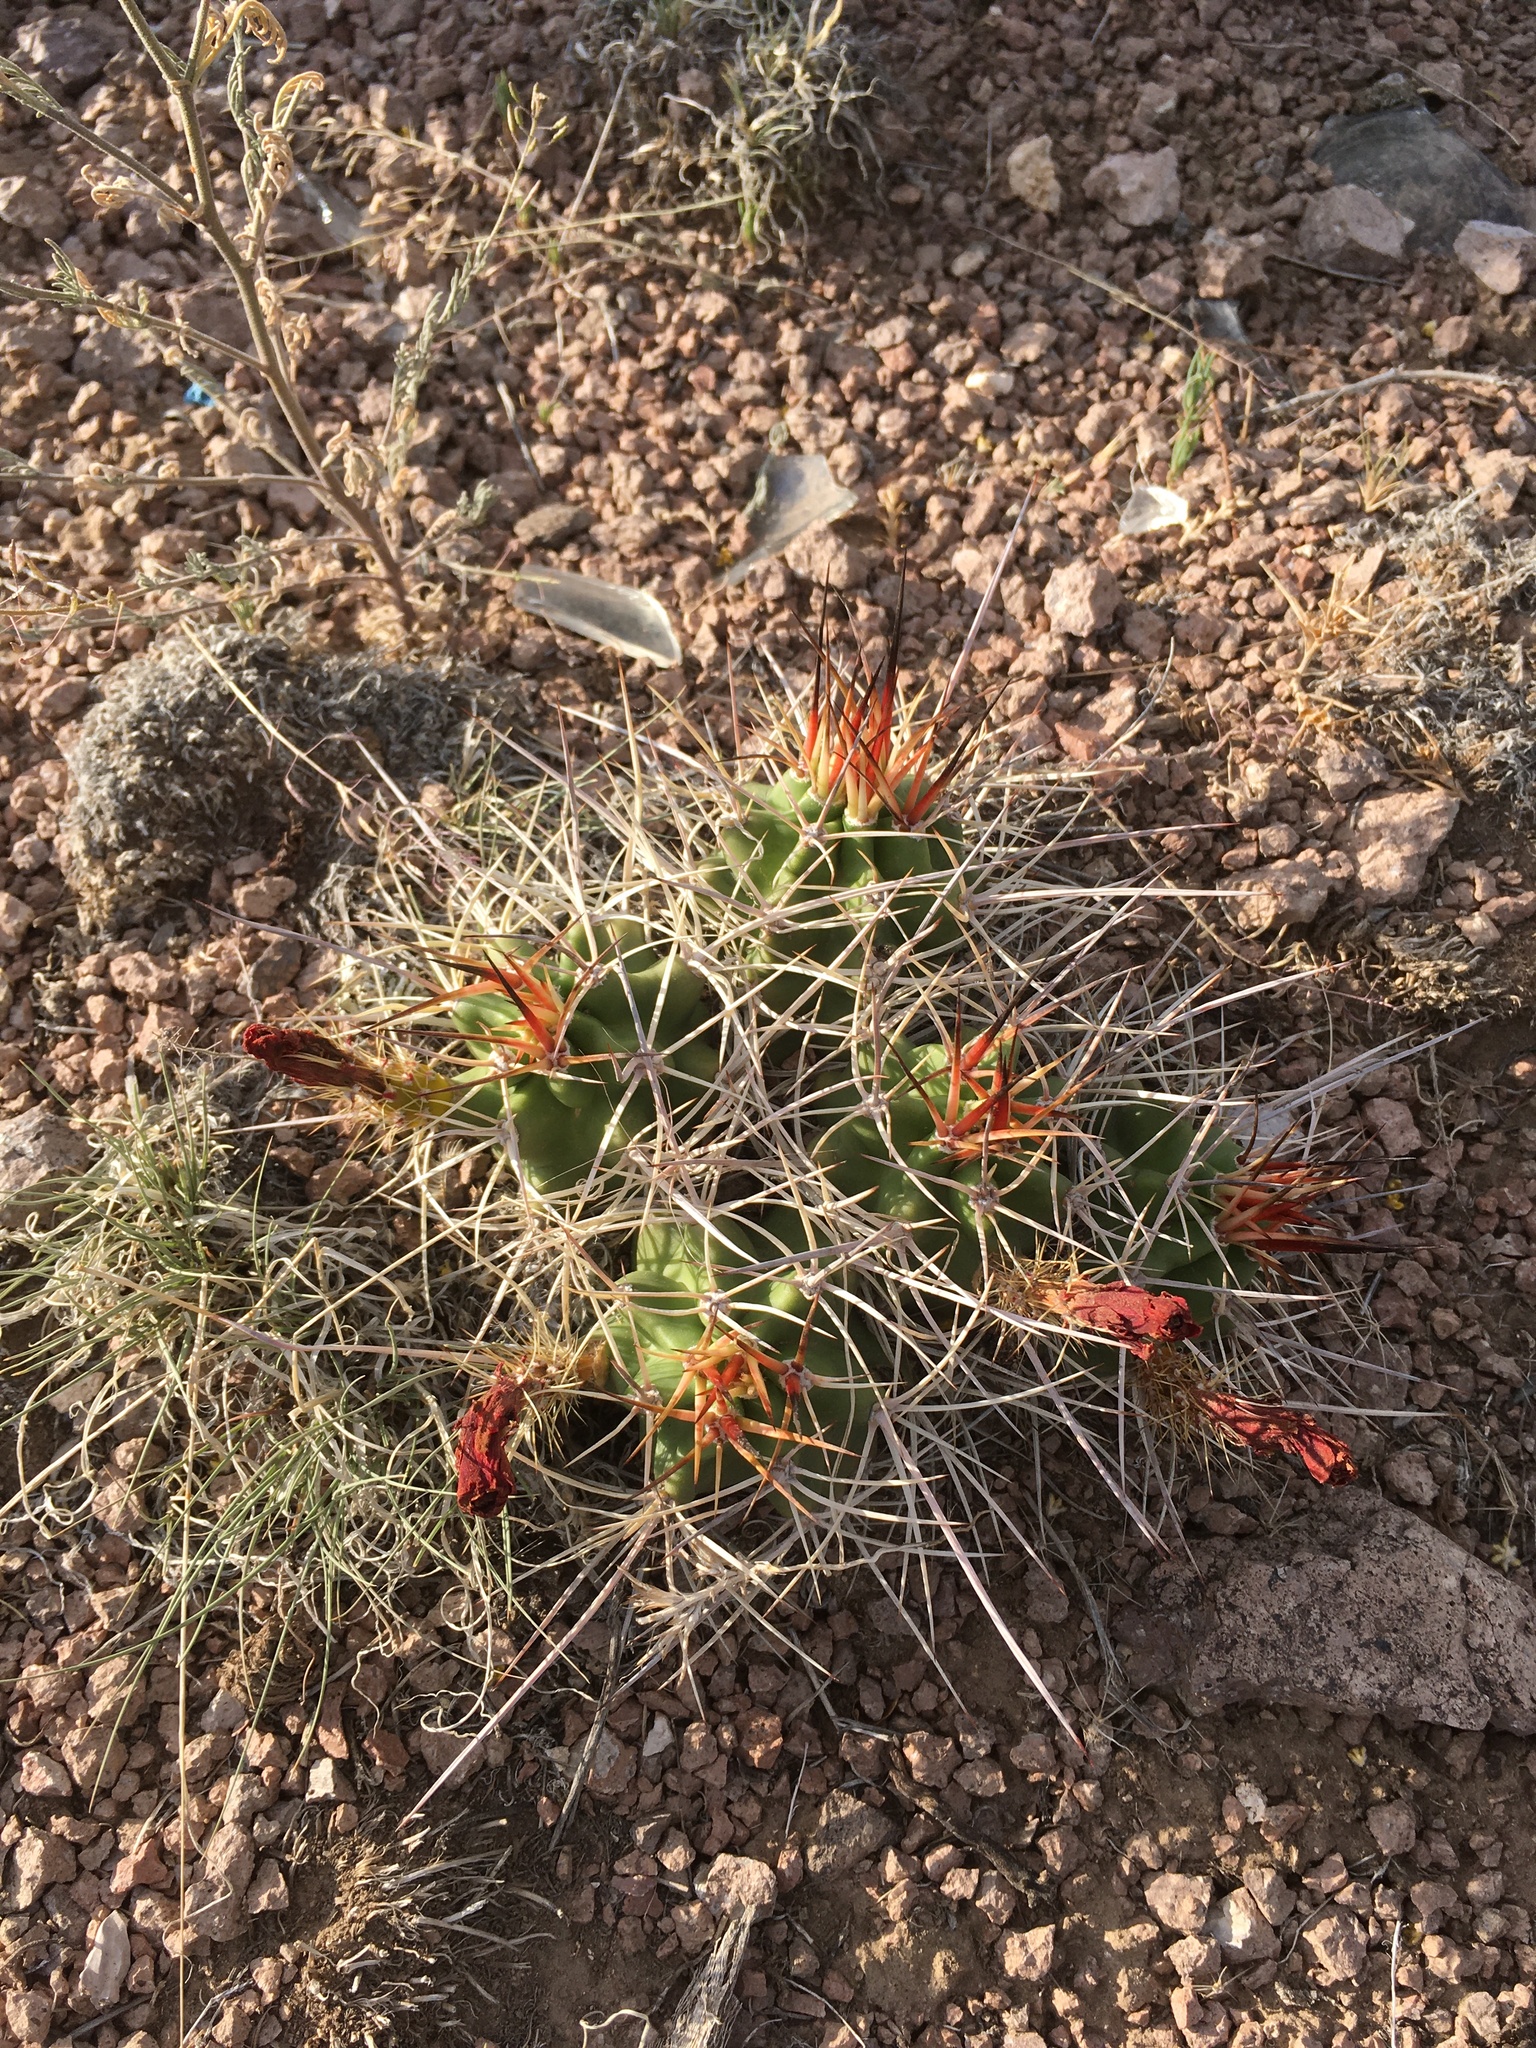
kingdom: Plantae
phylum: Tracheophyta
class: Magnoliopsida
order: Caryophyllales
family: Cactaceae
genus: Echinocereus
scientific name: Echinocereus triglochidiatus
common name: Claretcup hedgehog
